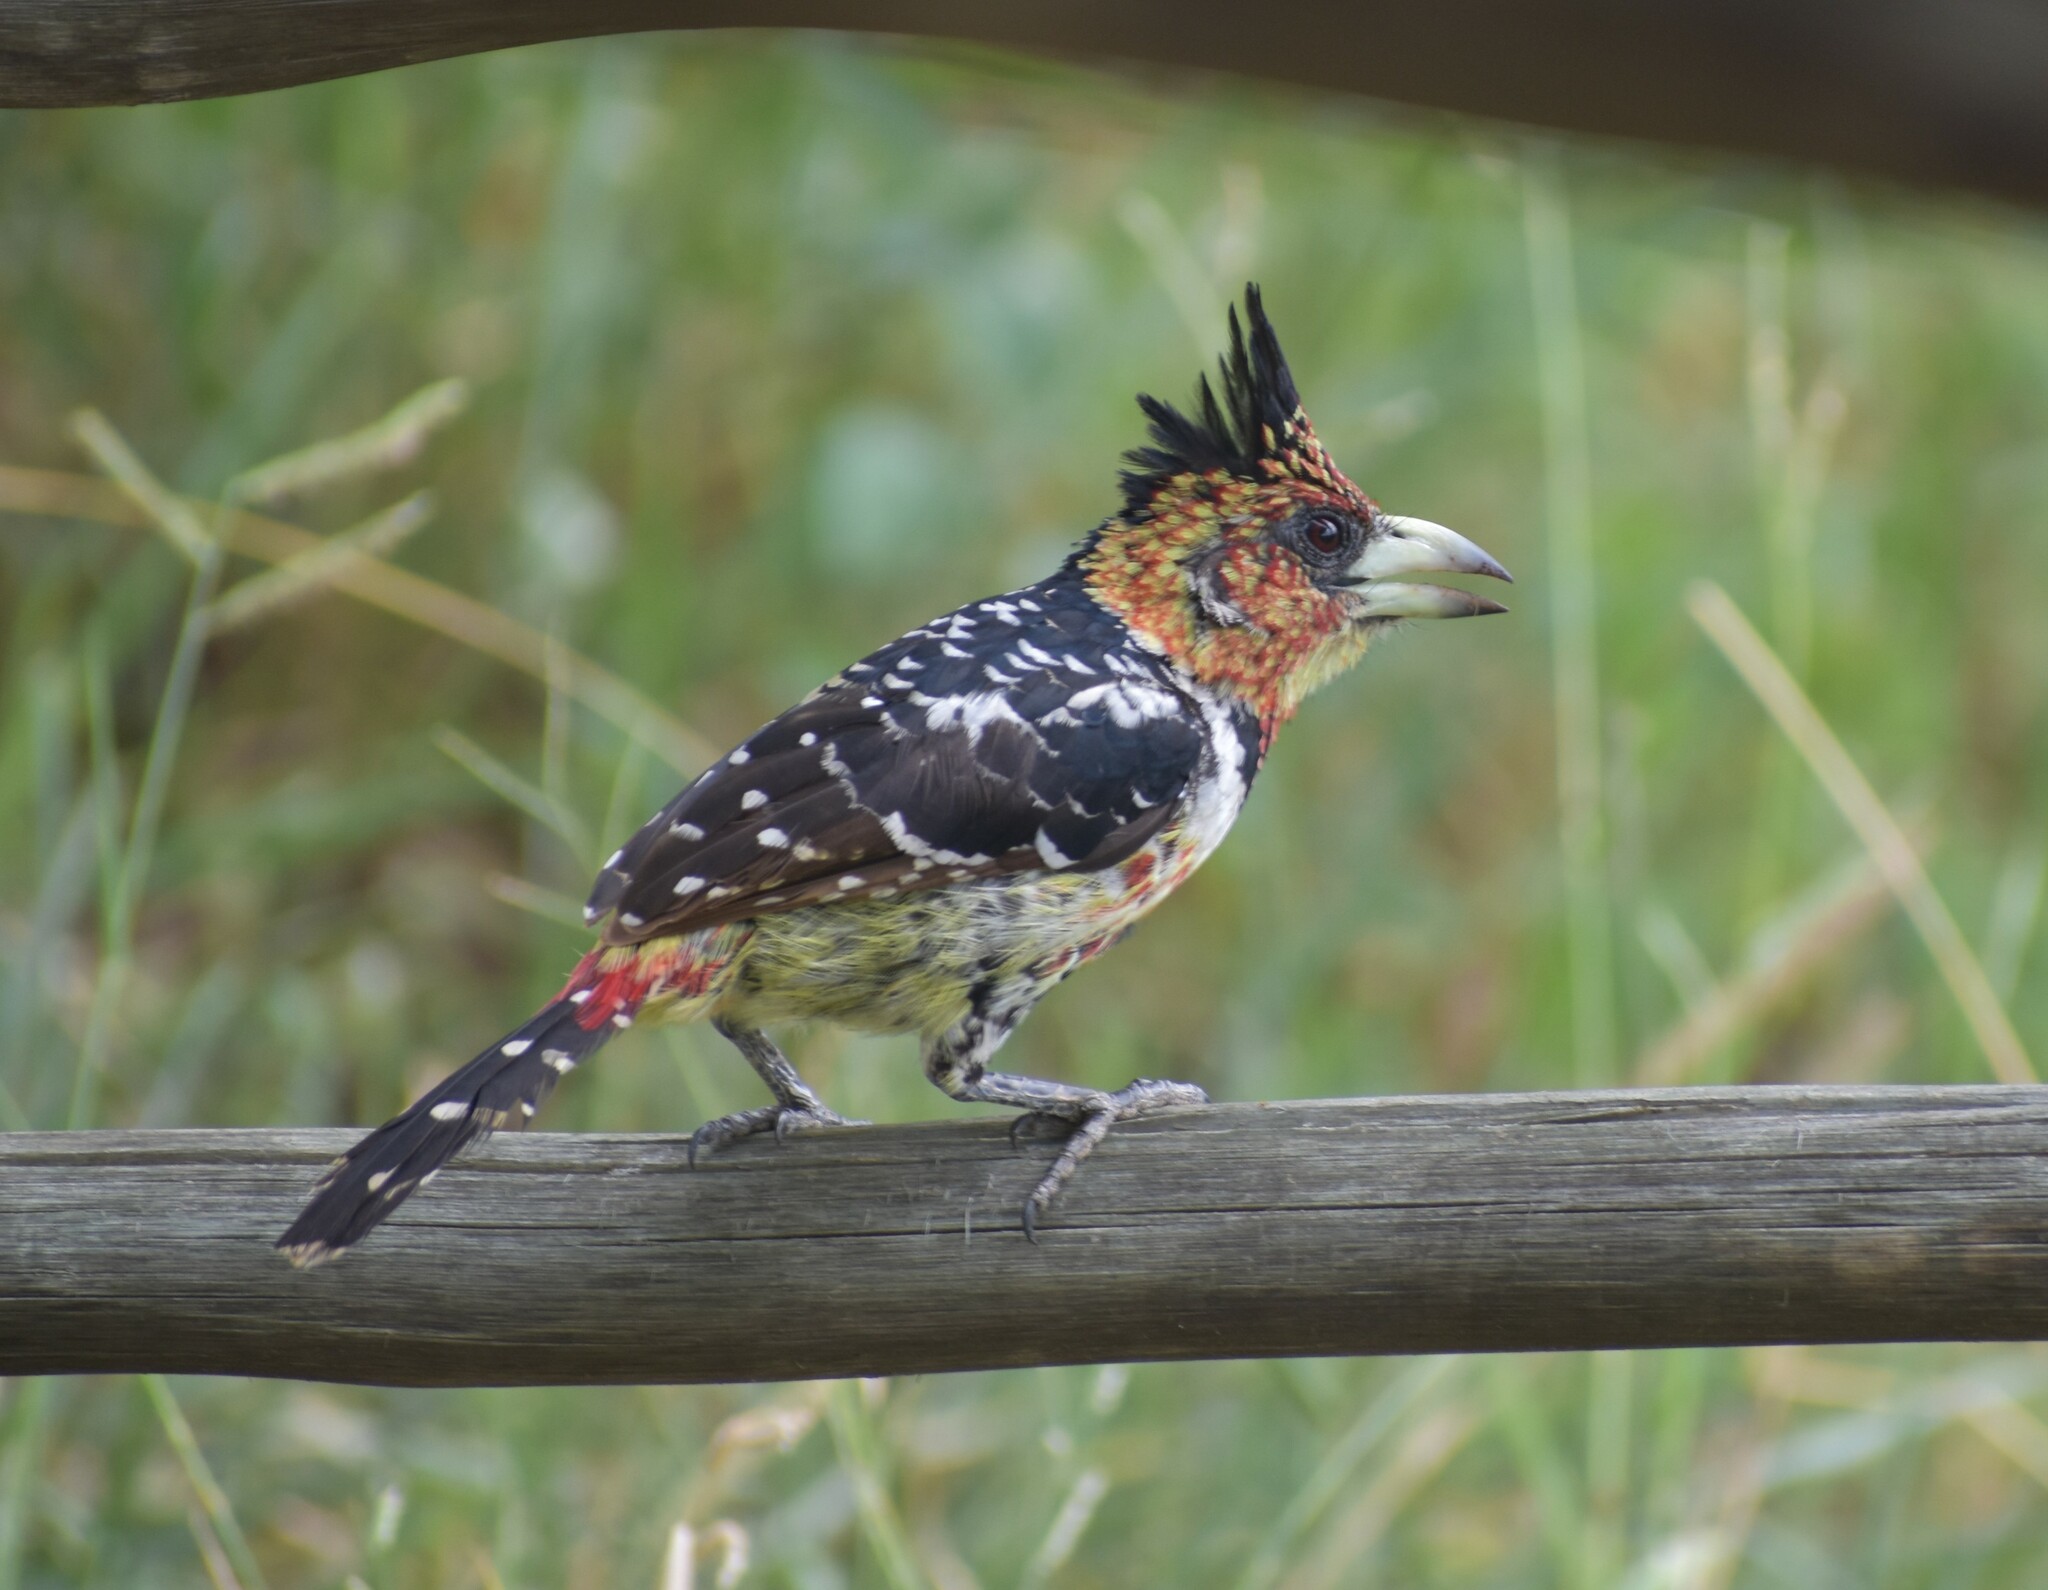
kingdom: Animalia
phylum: Chordata
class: Aves
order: Piciformes
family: Lybiidae
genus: Trachyphonus
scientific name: Trachyphonus vaillantii
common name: Crested barbet
